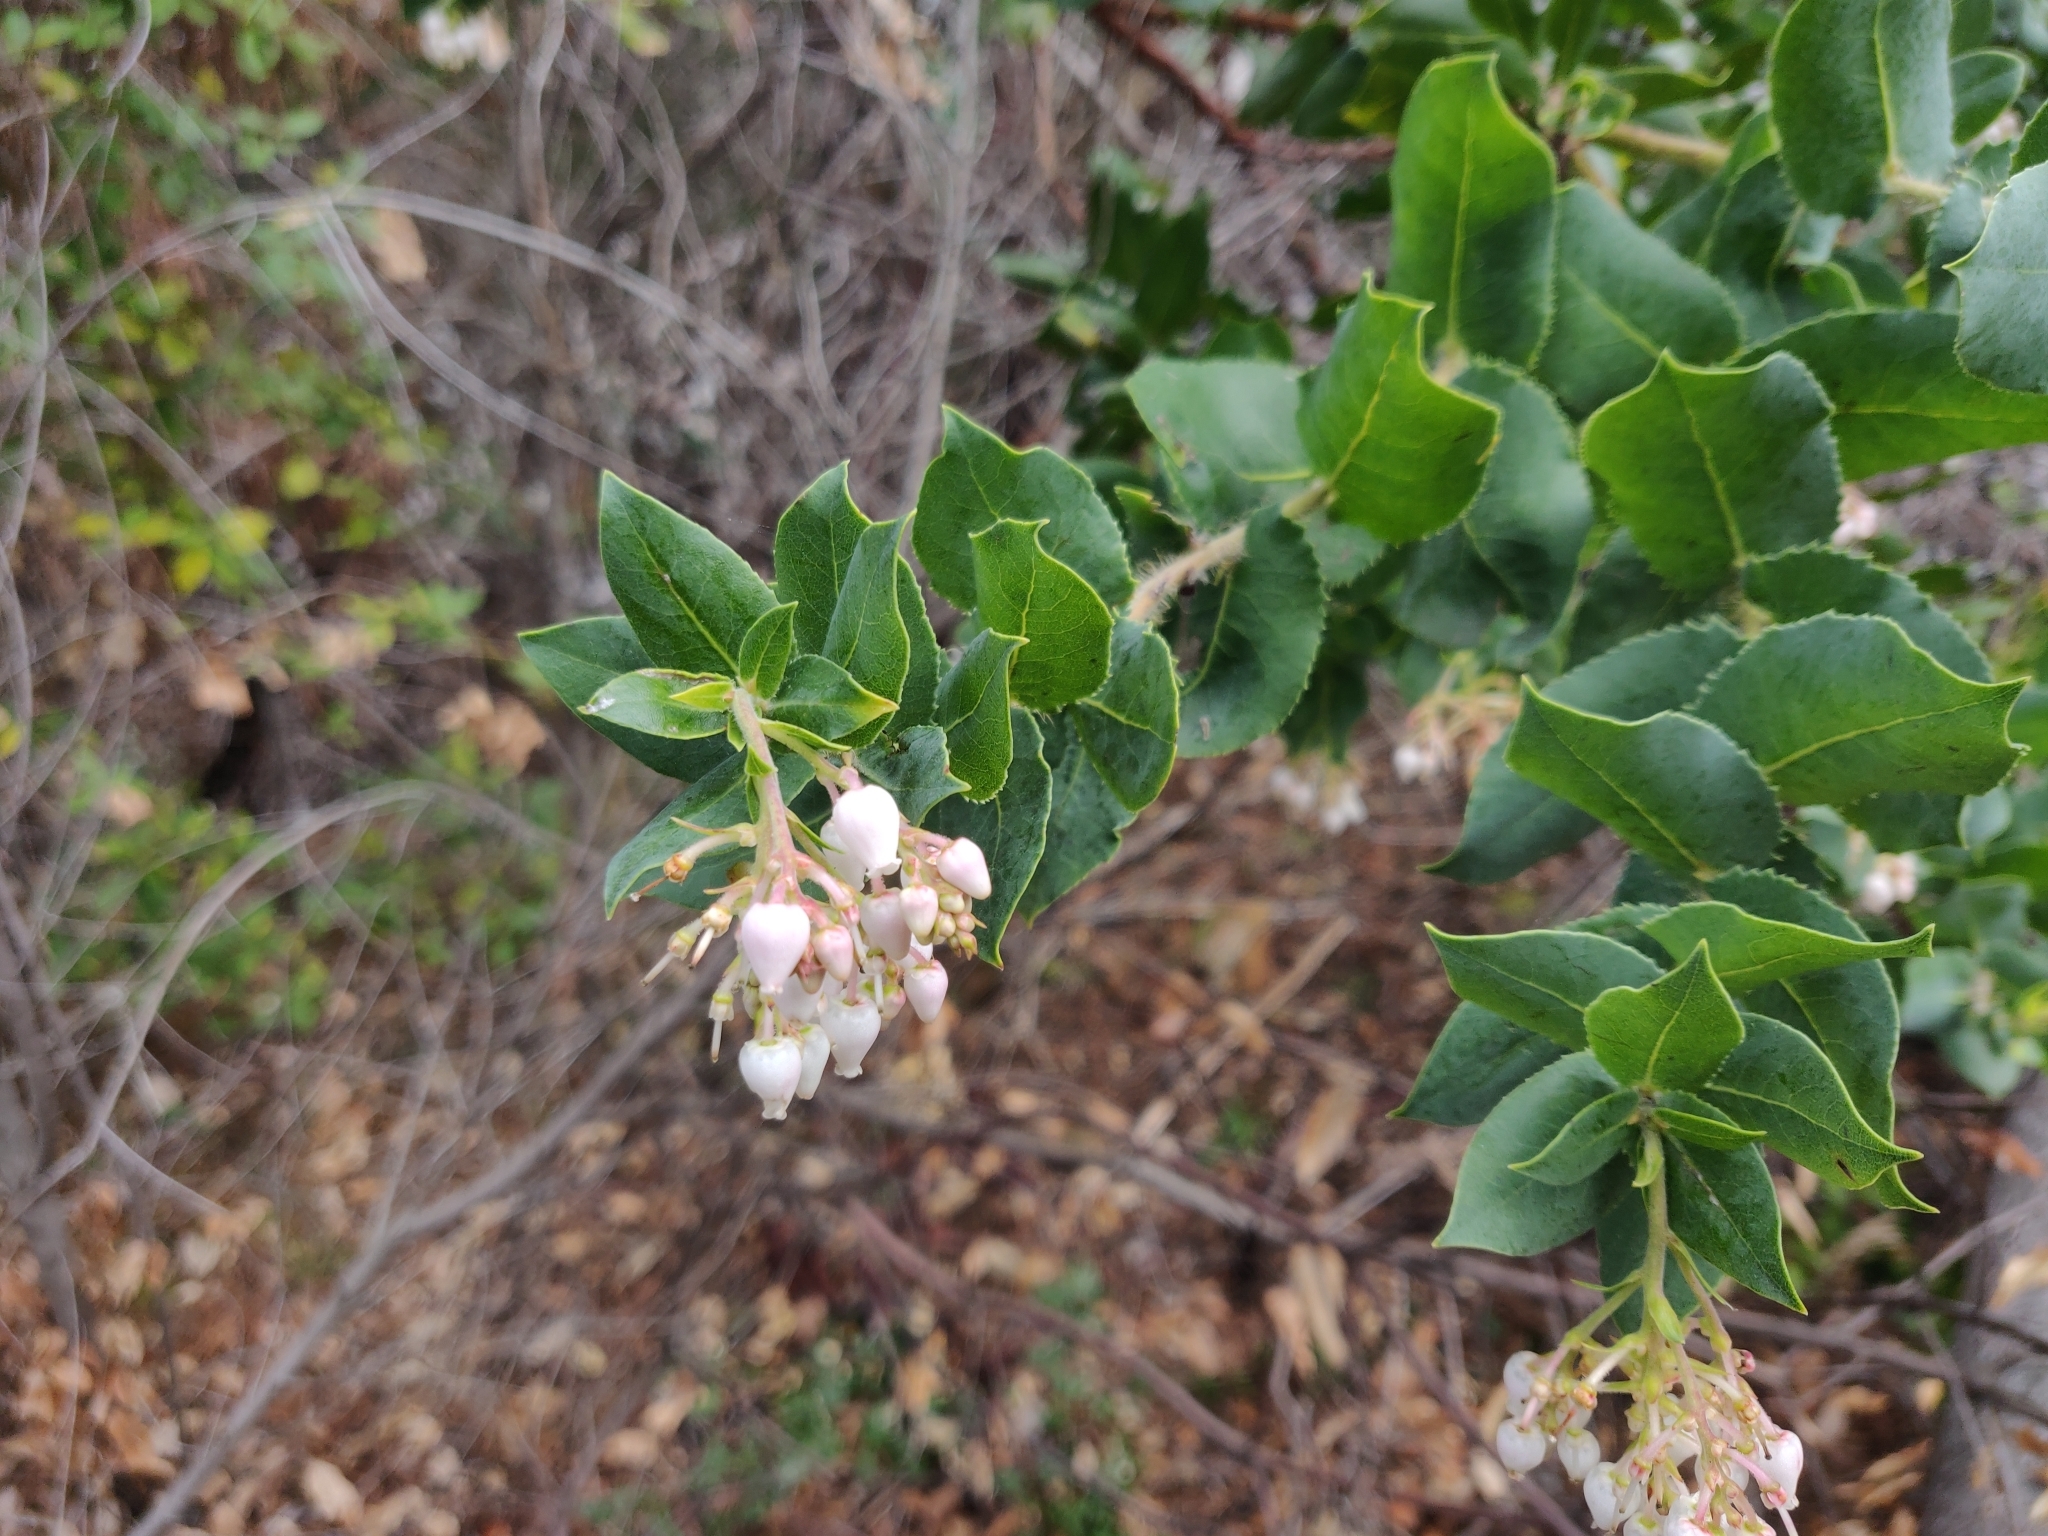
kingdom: Plantae
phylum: Tracheophyta
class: Magnoliopsida
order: Ericales
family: Ericaceae
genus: Arctostaphylos
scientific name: Arctostaphylos andersonii
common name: Santa cruz manzanita
